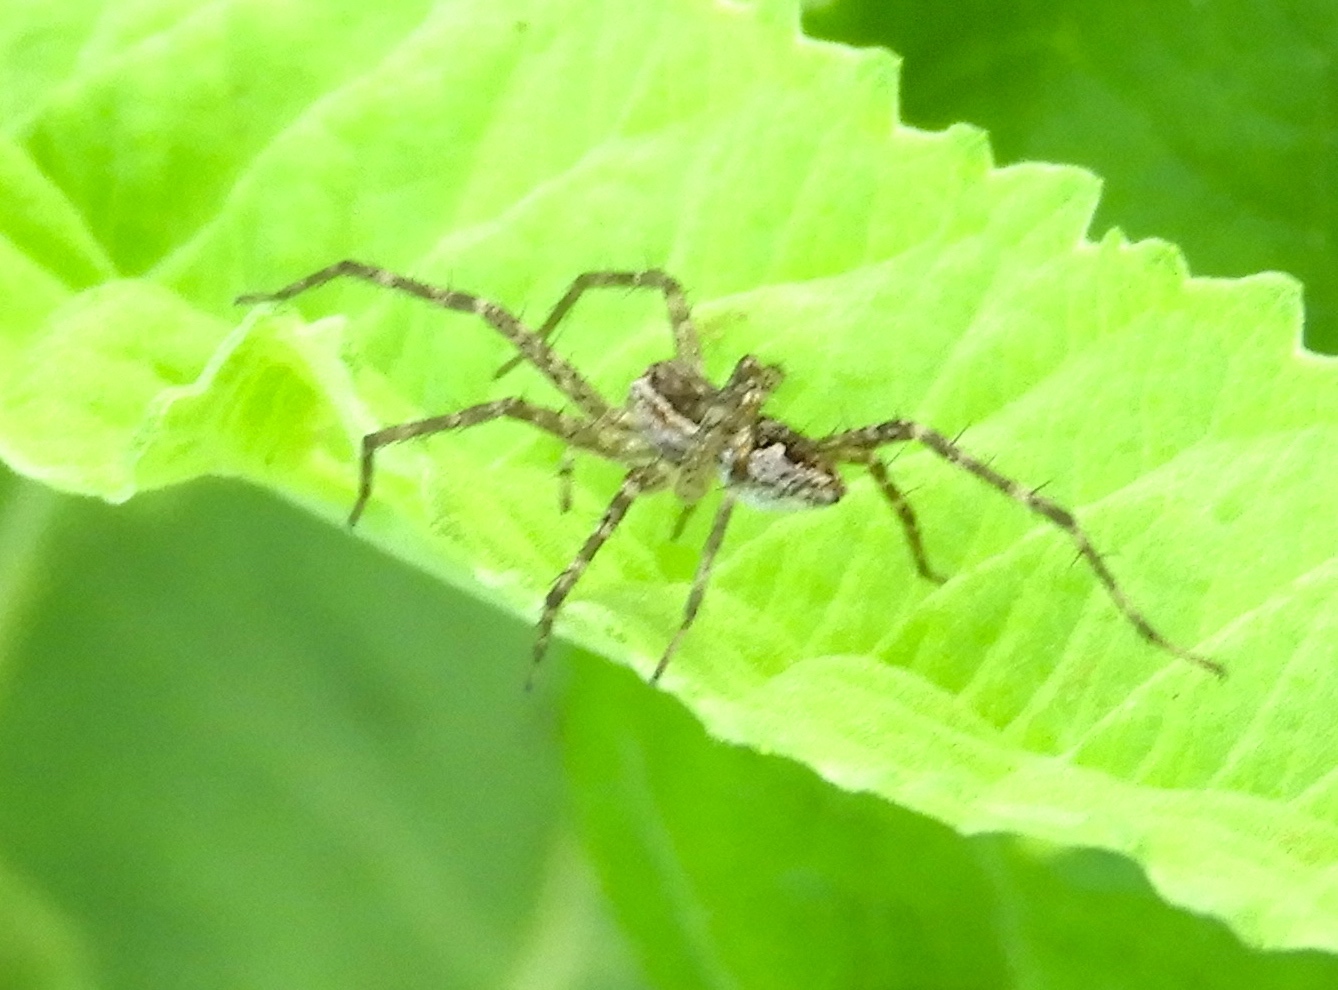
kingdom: Animalia
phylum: Arthropoda
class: Arachnida
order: Araneae
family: Pisauridae
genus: Tinus
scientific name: Tinus
